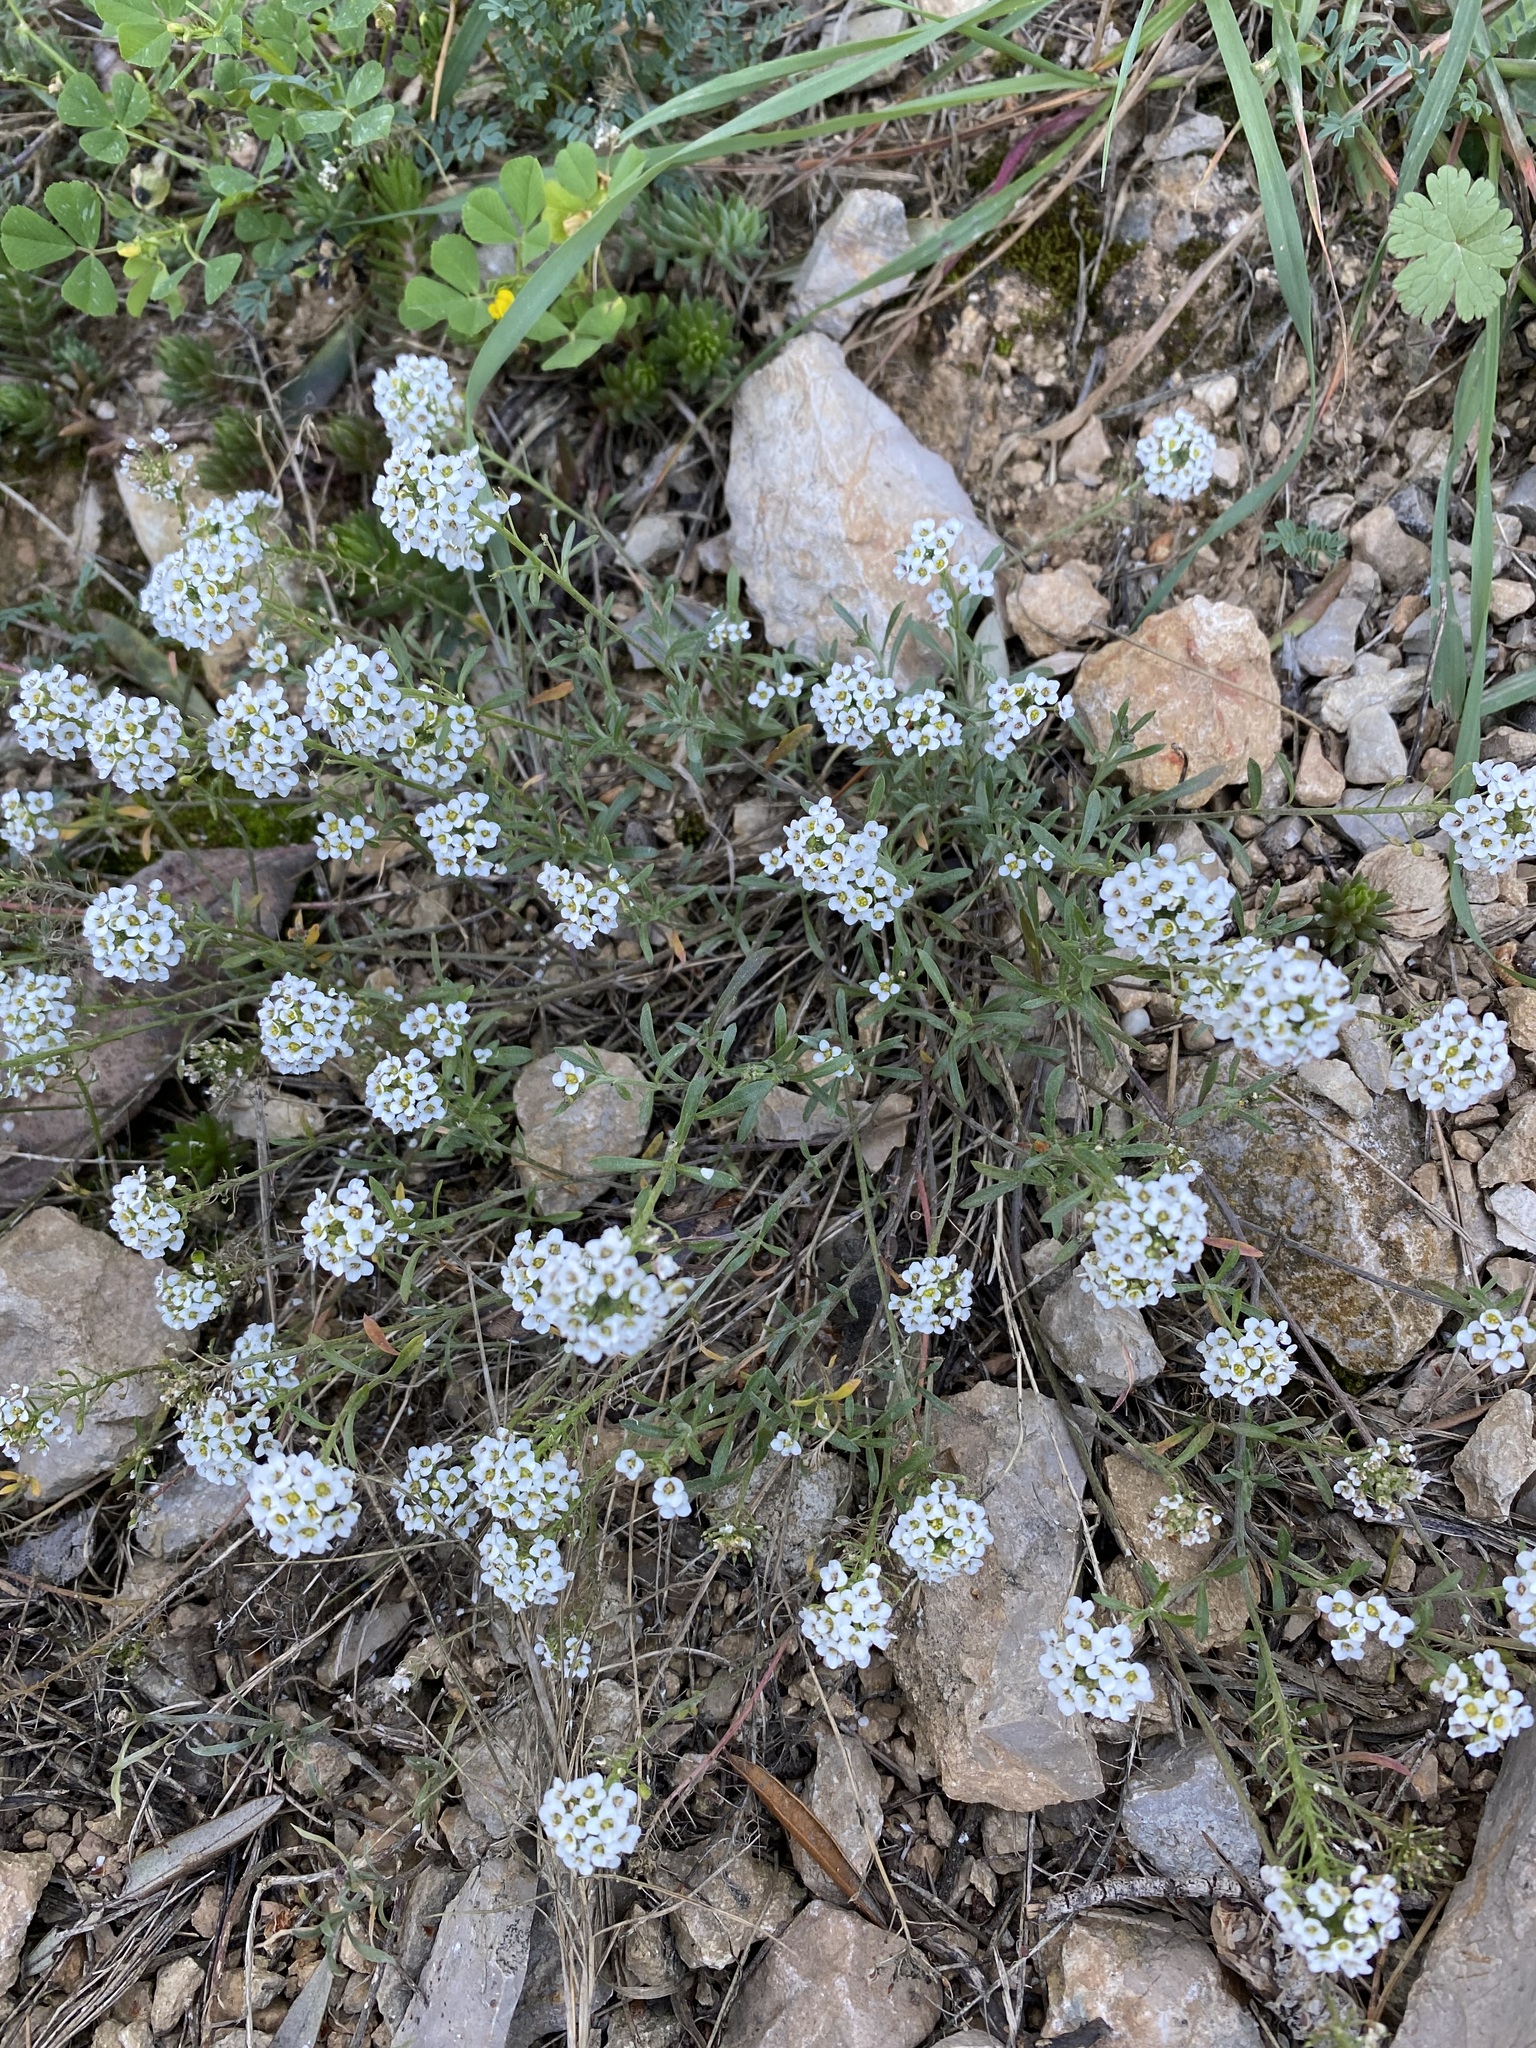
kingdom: Plantae
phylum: Tracheophyta
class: Magnoliopsida
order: Brassicales
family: Brassicaceae
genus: Lobularia
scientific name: Lobularia maritima
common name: Sweet alison
